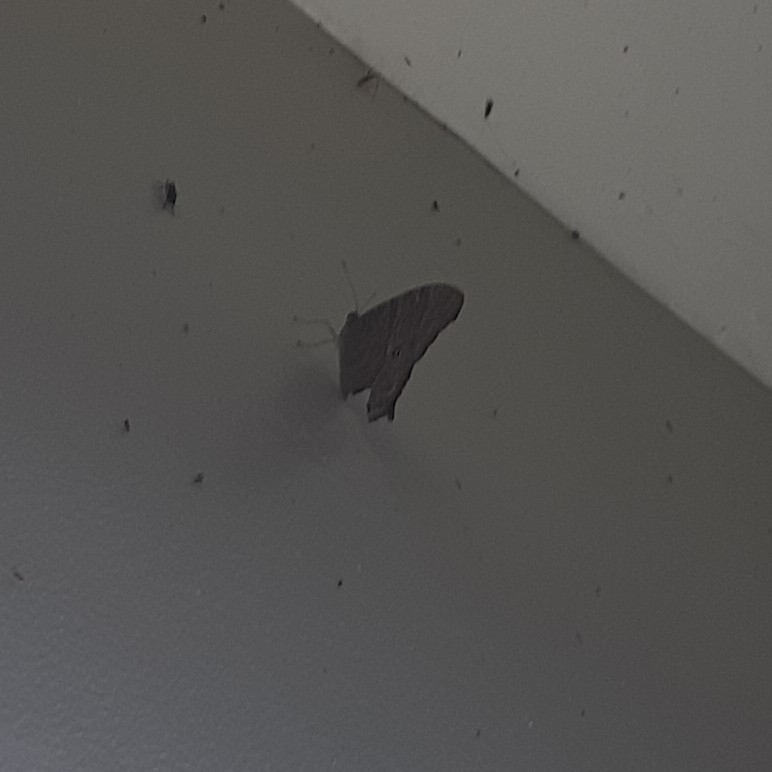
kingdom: Animalia
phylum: Arthropoda
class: Insecta
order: Lepidoptera
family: Nymphalidae
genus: Melanitis
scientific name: Melanitis leda
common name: Twilight brown
